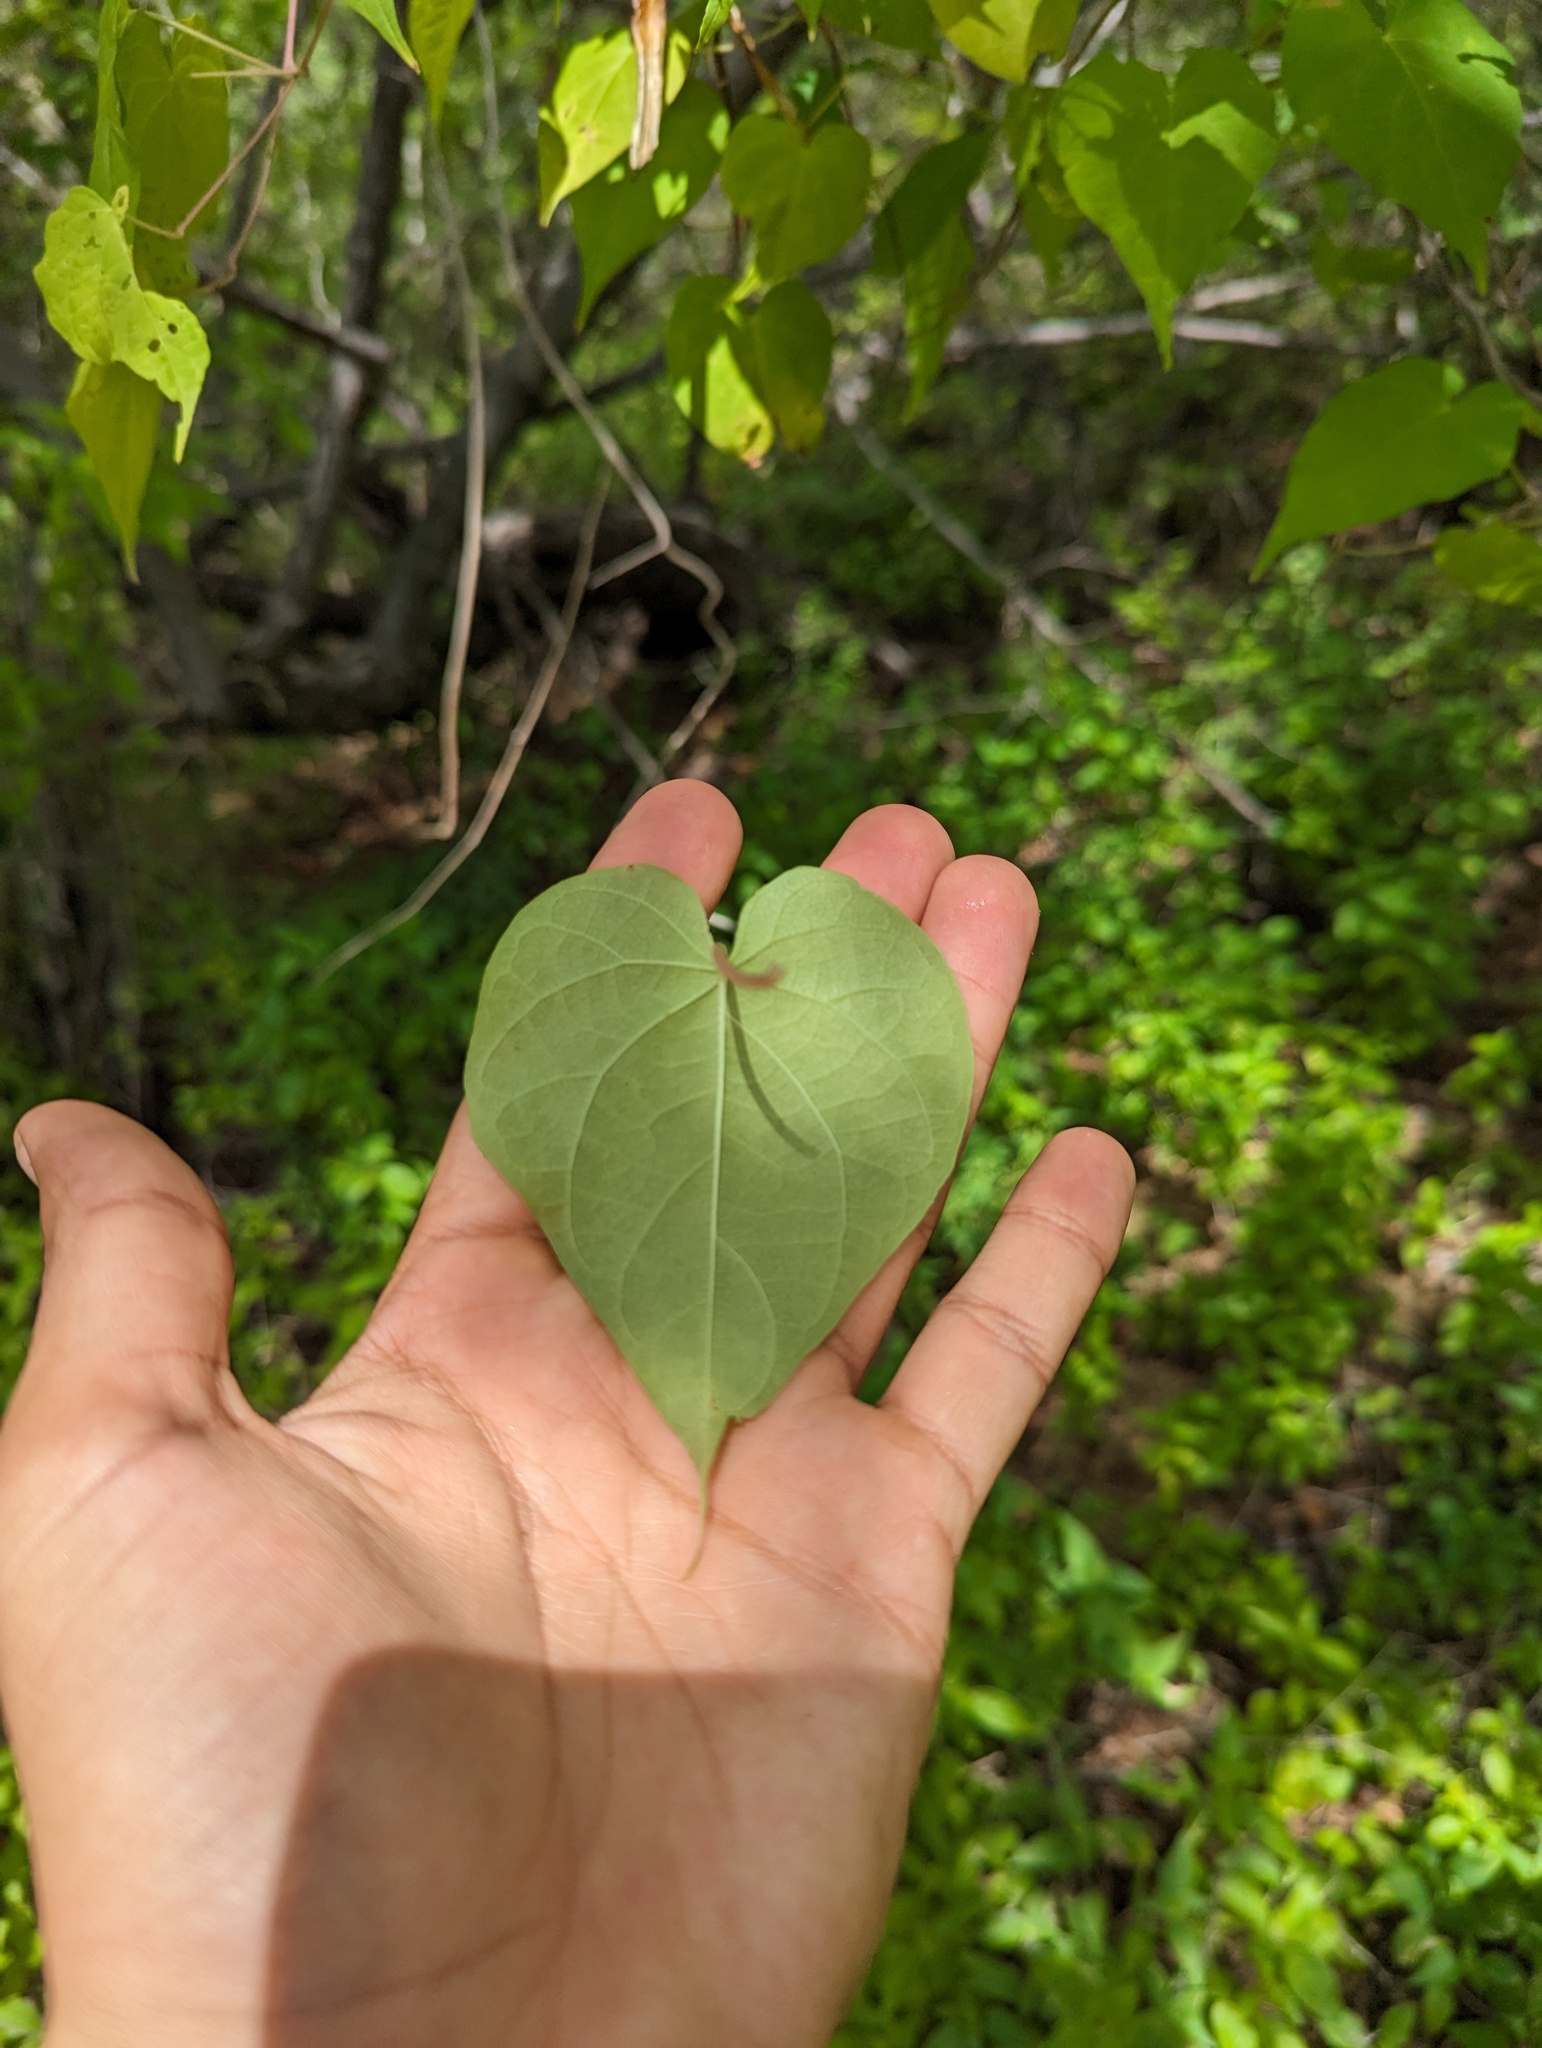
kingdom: Plantae
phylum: Tracheophyta
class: Magnoliopsida
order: Solanales
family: Convolvulaceae
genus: Ipomoea
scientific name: Ipomoea tastensis
